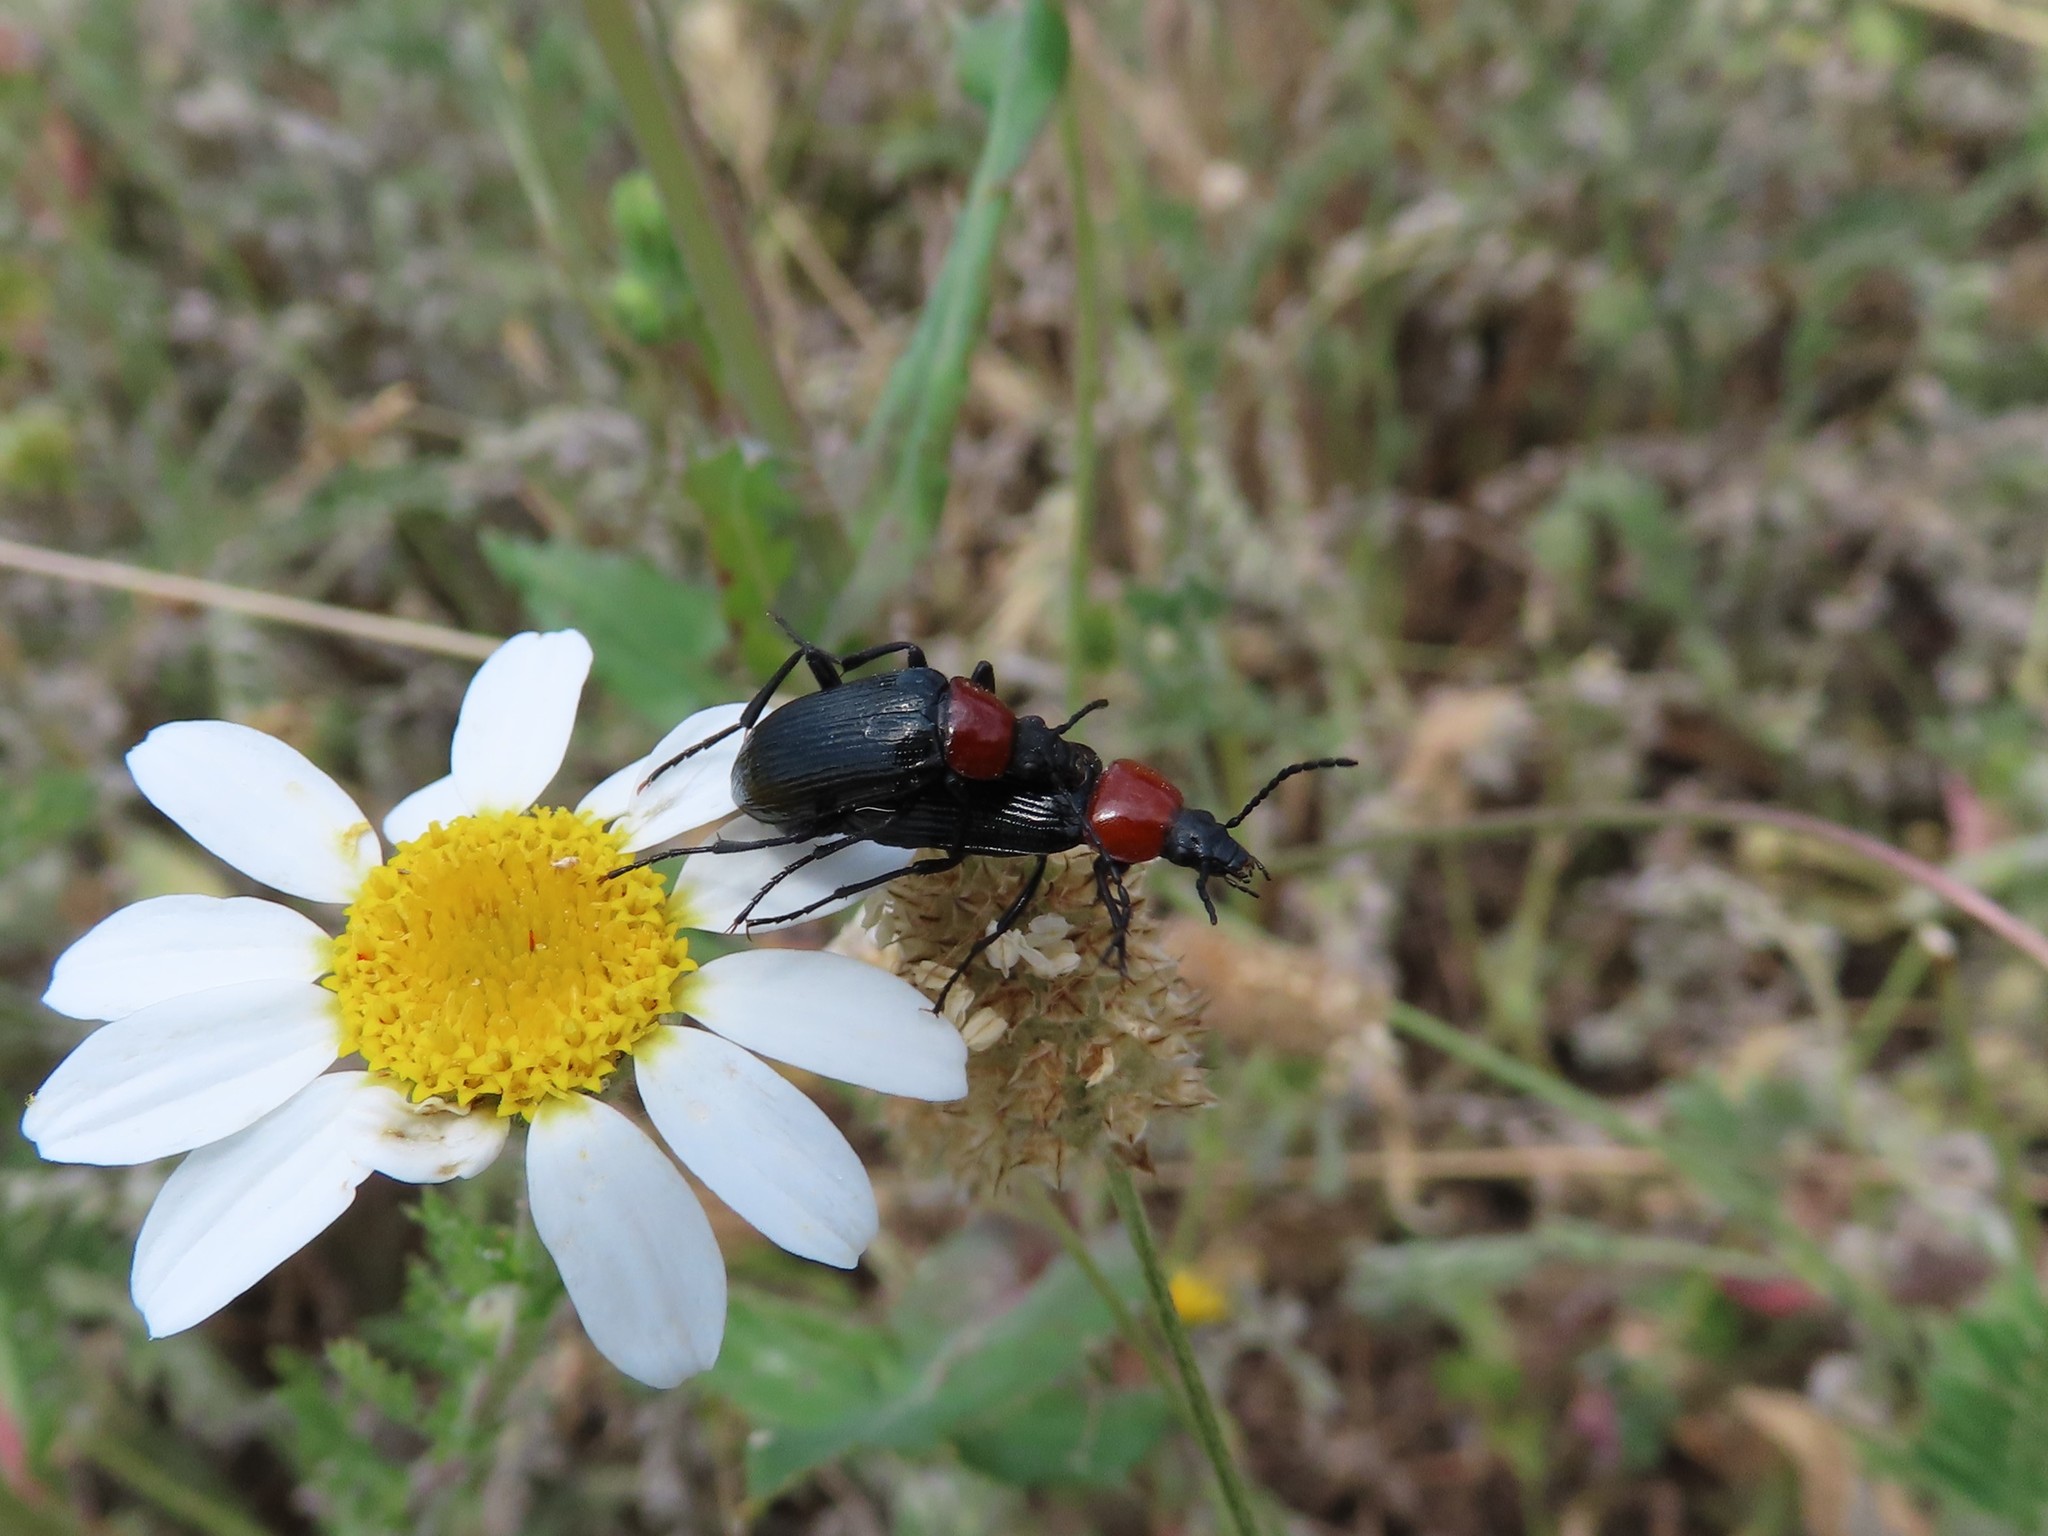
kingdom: Animalia
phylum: Arthropoda
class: Insecta
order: Coleoptera
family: Tenebrionidae
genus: Heliotaurus
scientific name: Heliotaurus ruficollis
